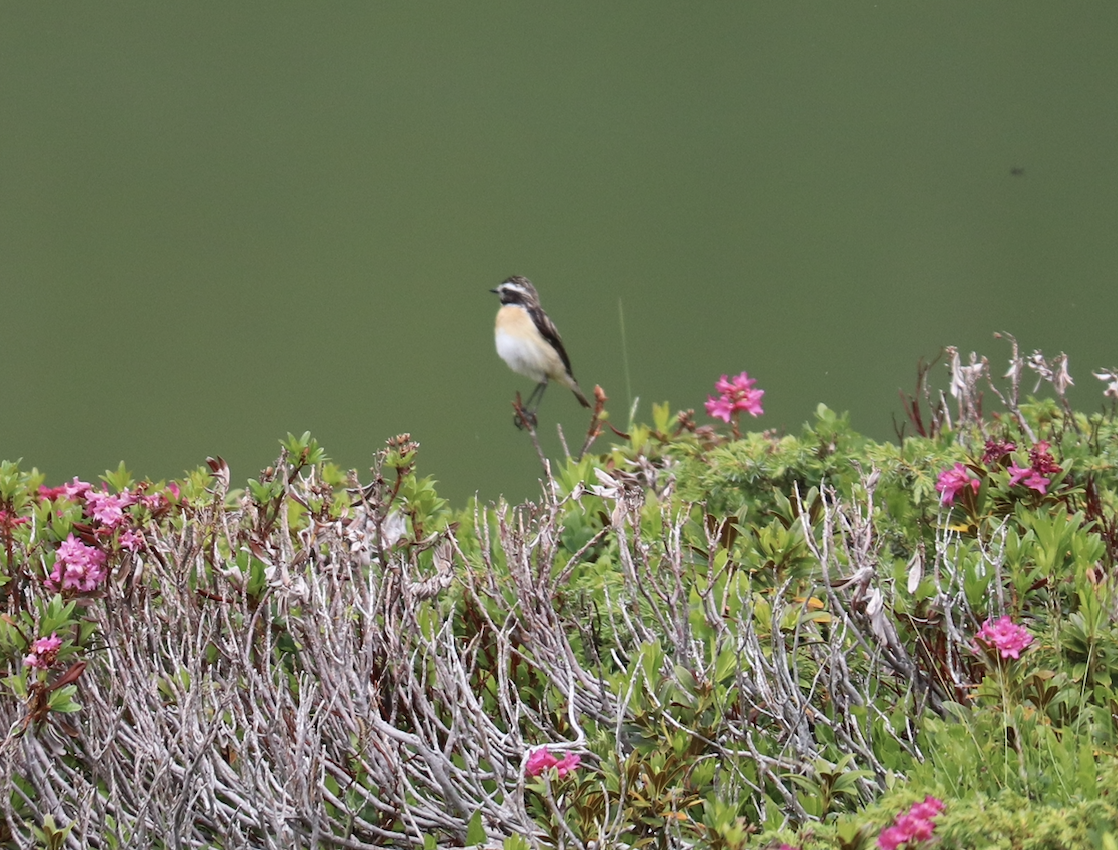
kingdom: Animalia
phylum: Chordata
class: Aves
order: Passeriformes
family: Muscicapidae
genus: Saxicola
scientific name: Saxicola rubetra
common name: Whinchat
